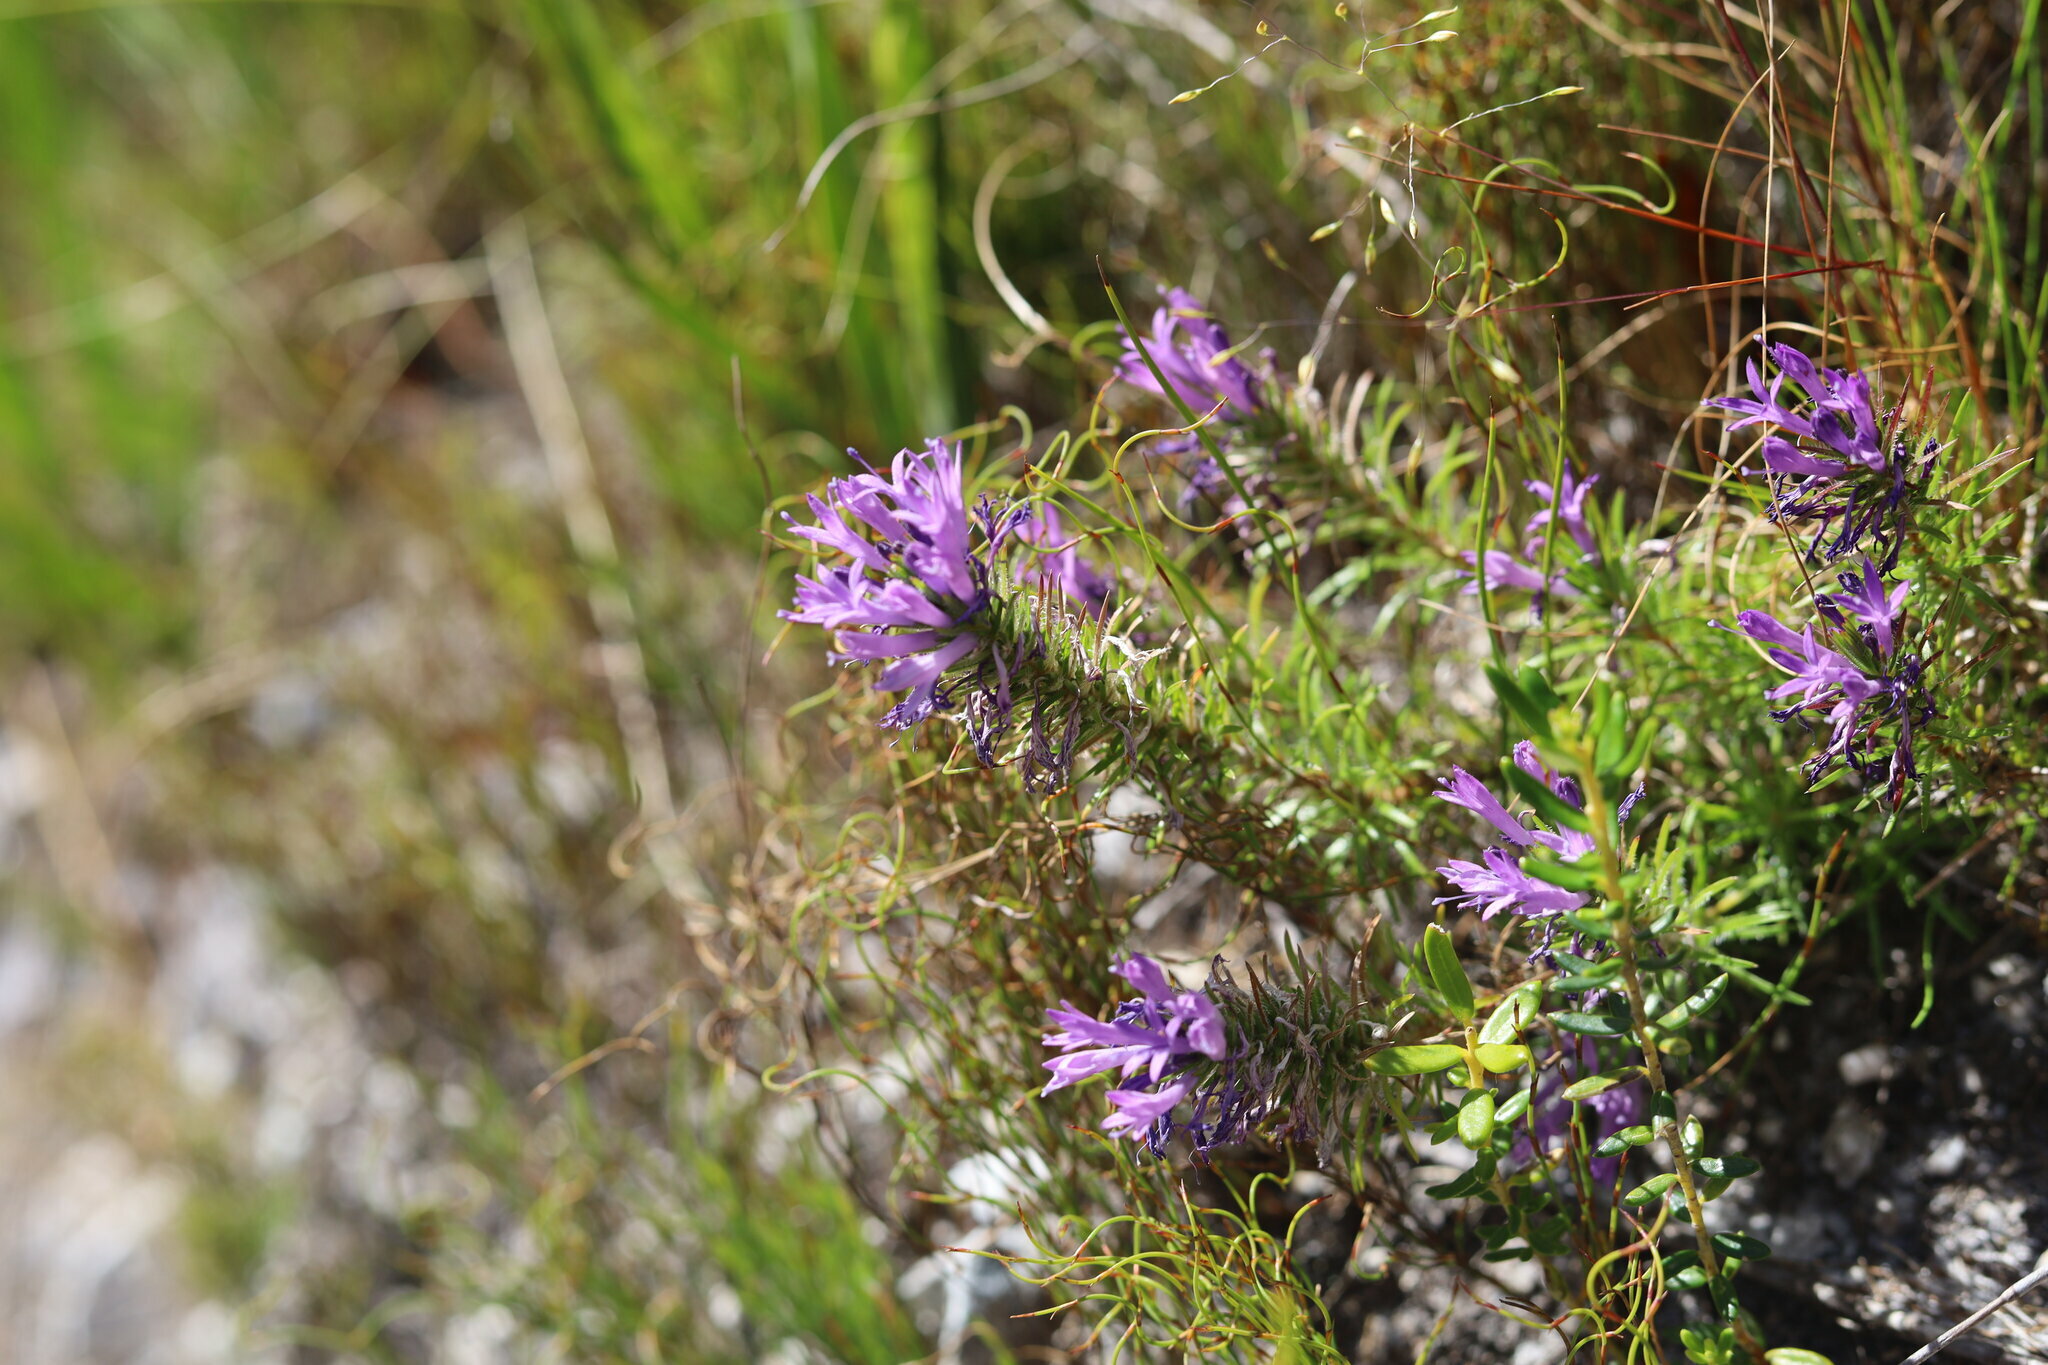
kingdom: Plantae
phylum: Tracheophyta
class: Magnoliopsida
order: Asterales
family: Campanulaceae
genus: Merciera
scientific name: Merciera azurea
